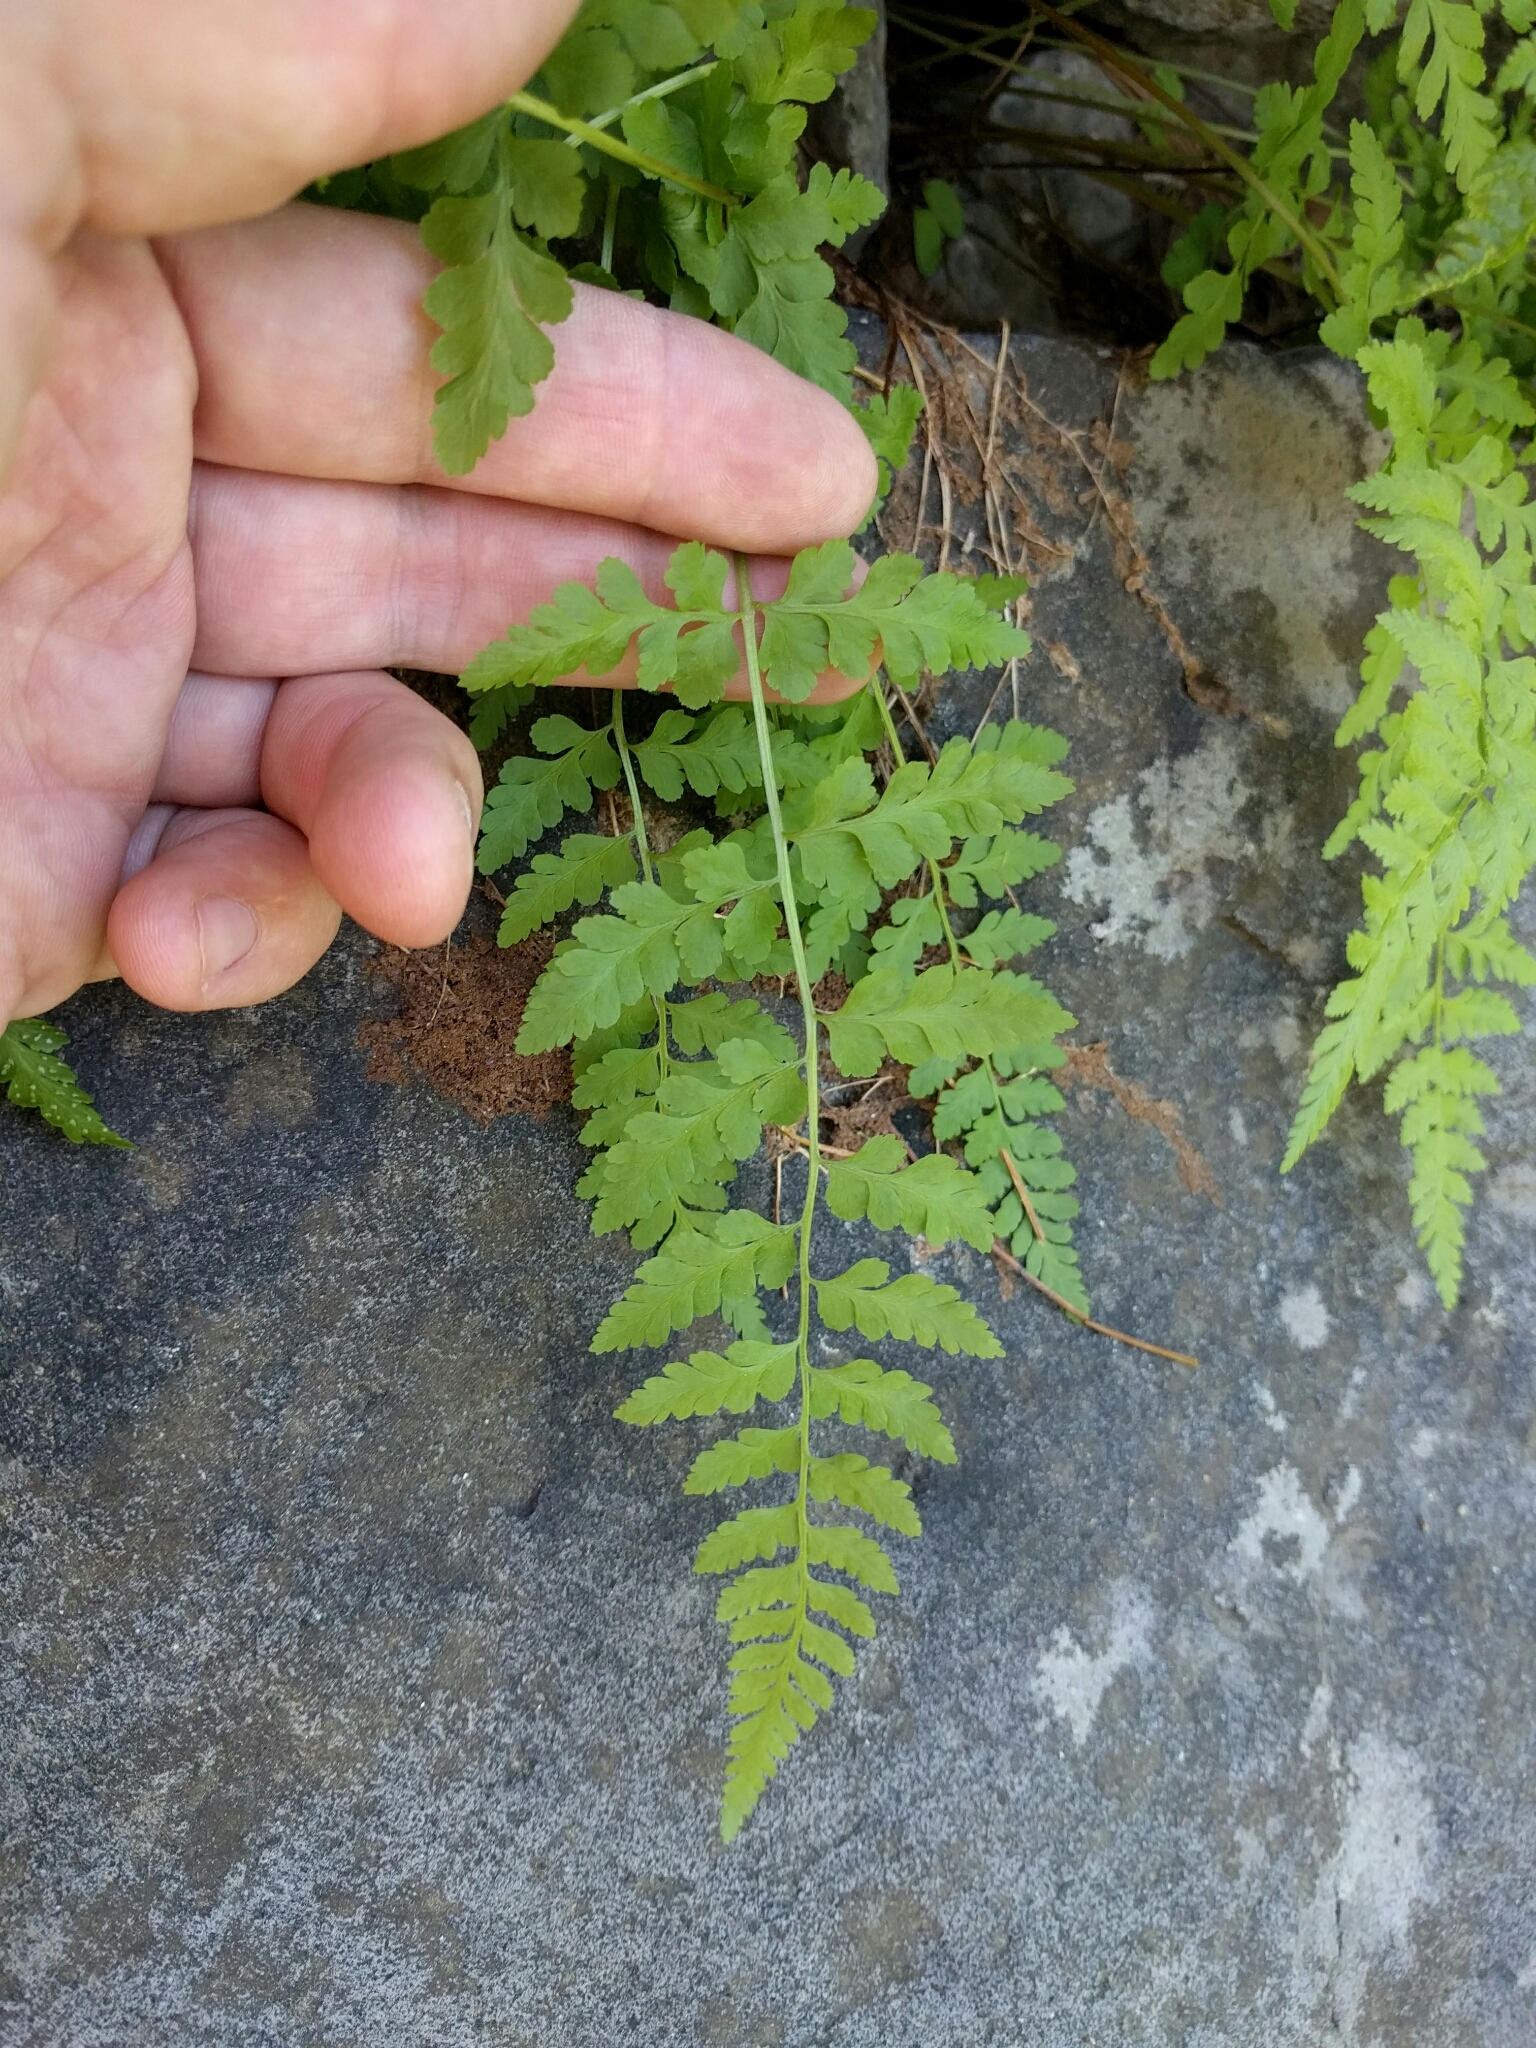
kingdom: Plantae
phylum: Tracheophyta
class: Polypodiopsida
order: Polypodiales
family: Cystopteridaceae
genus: Cystopteris
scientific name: Cystopteris fragilis
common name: Brittle bladder fern
